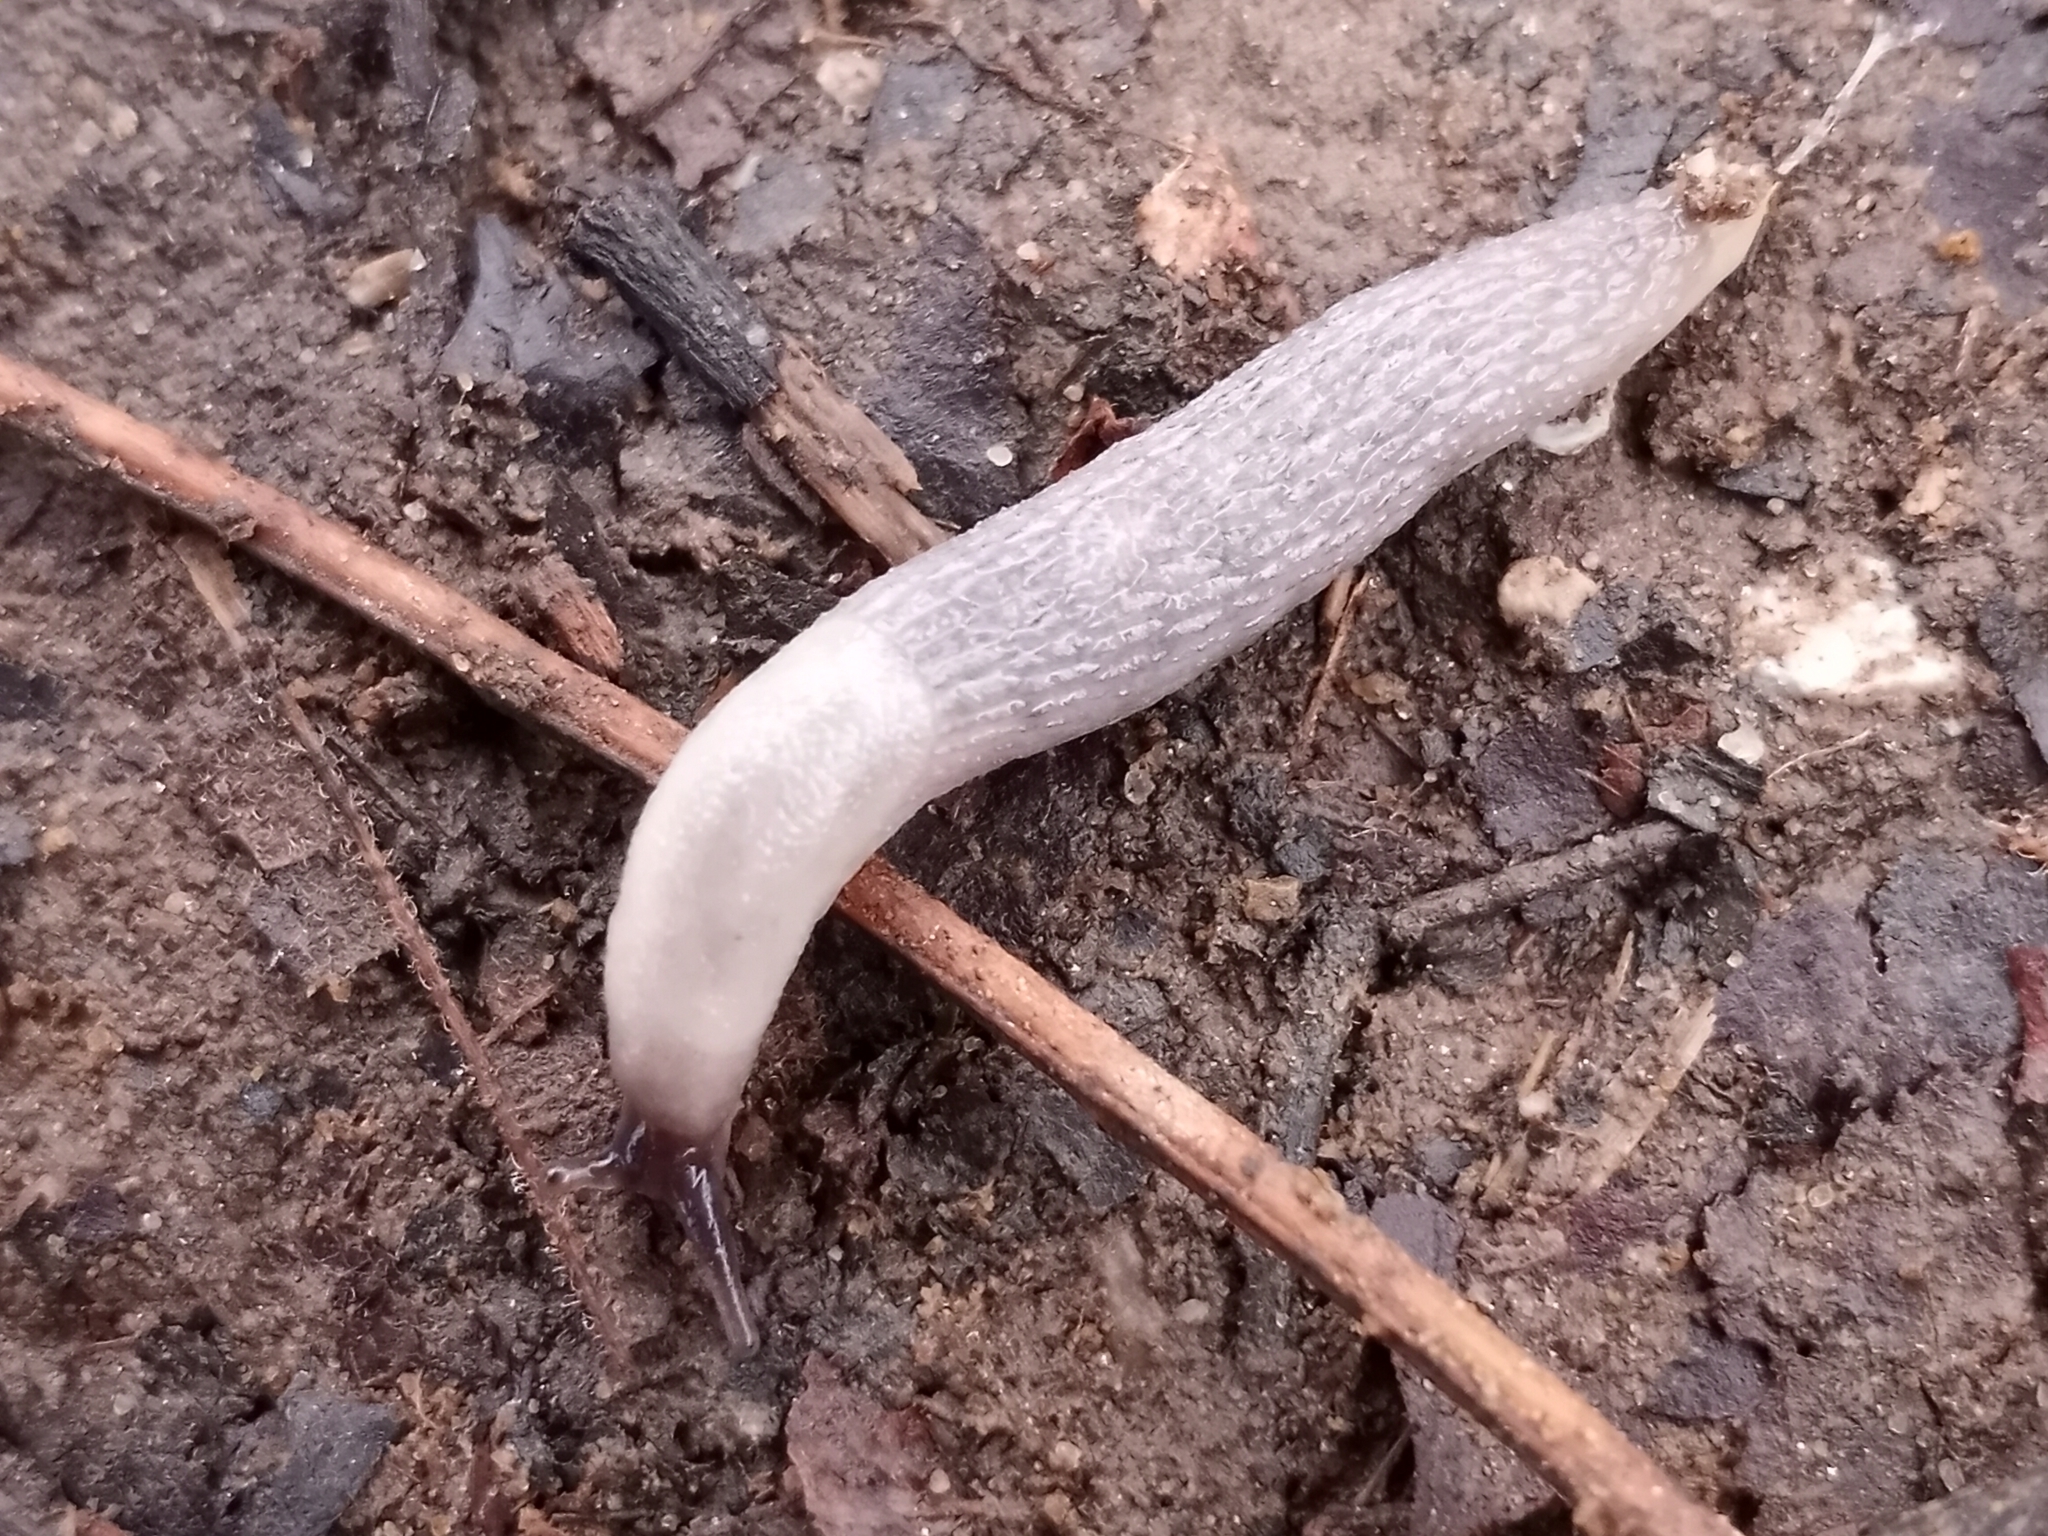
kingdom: Animalia
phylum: Mollusca
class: Gastropoda
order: Stylommatophora
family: Arionidae
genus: Arion
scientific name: Arion intermedius
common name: Hedgehog slug
